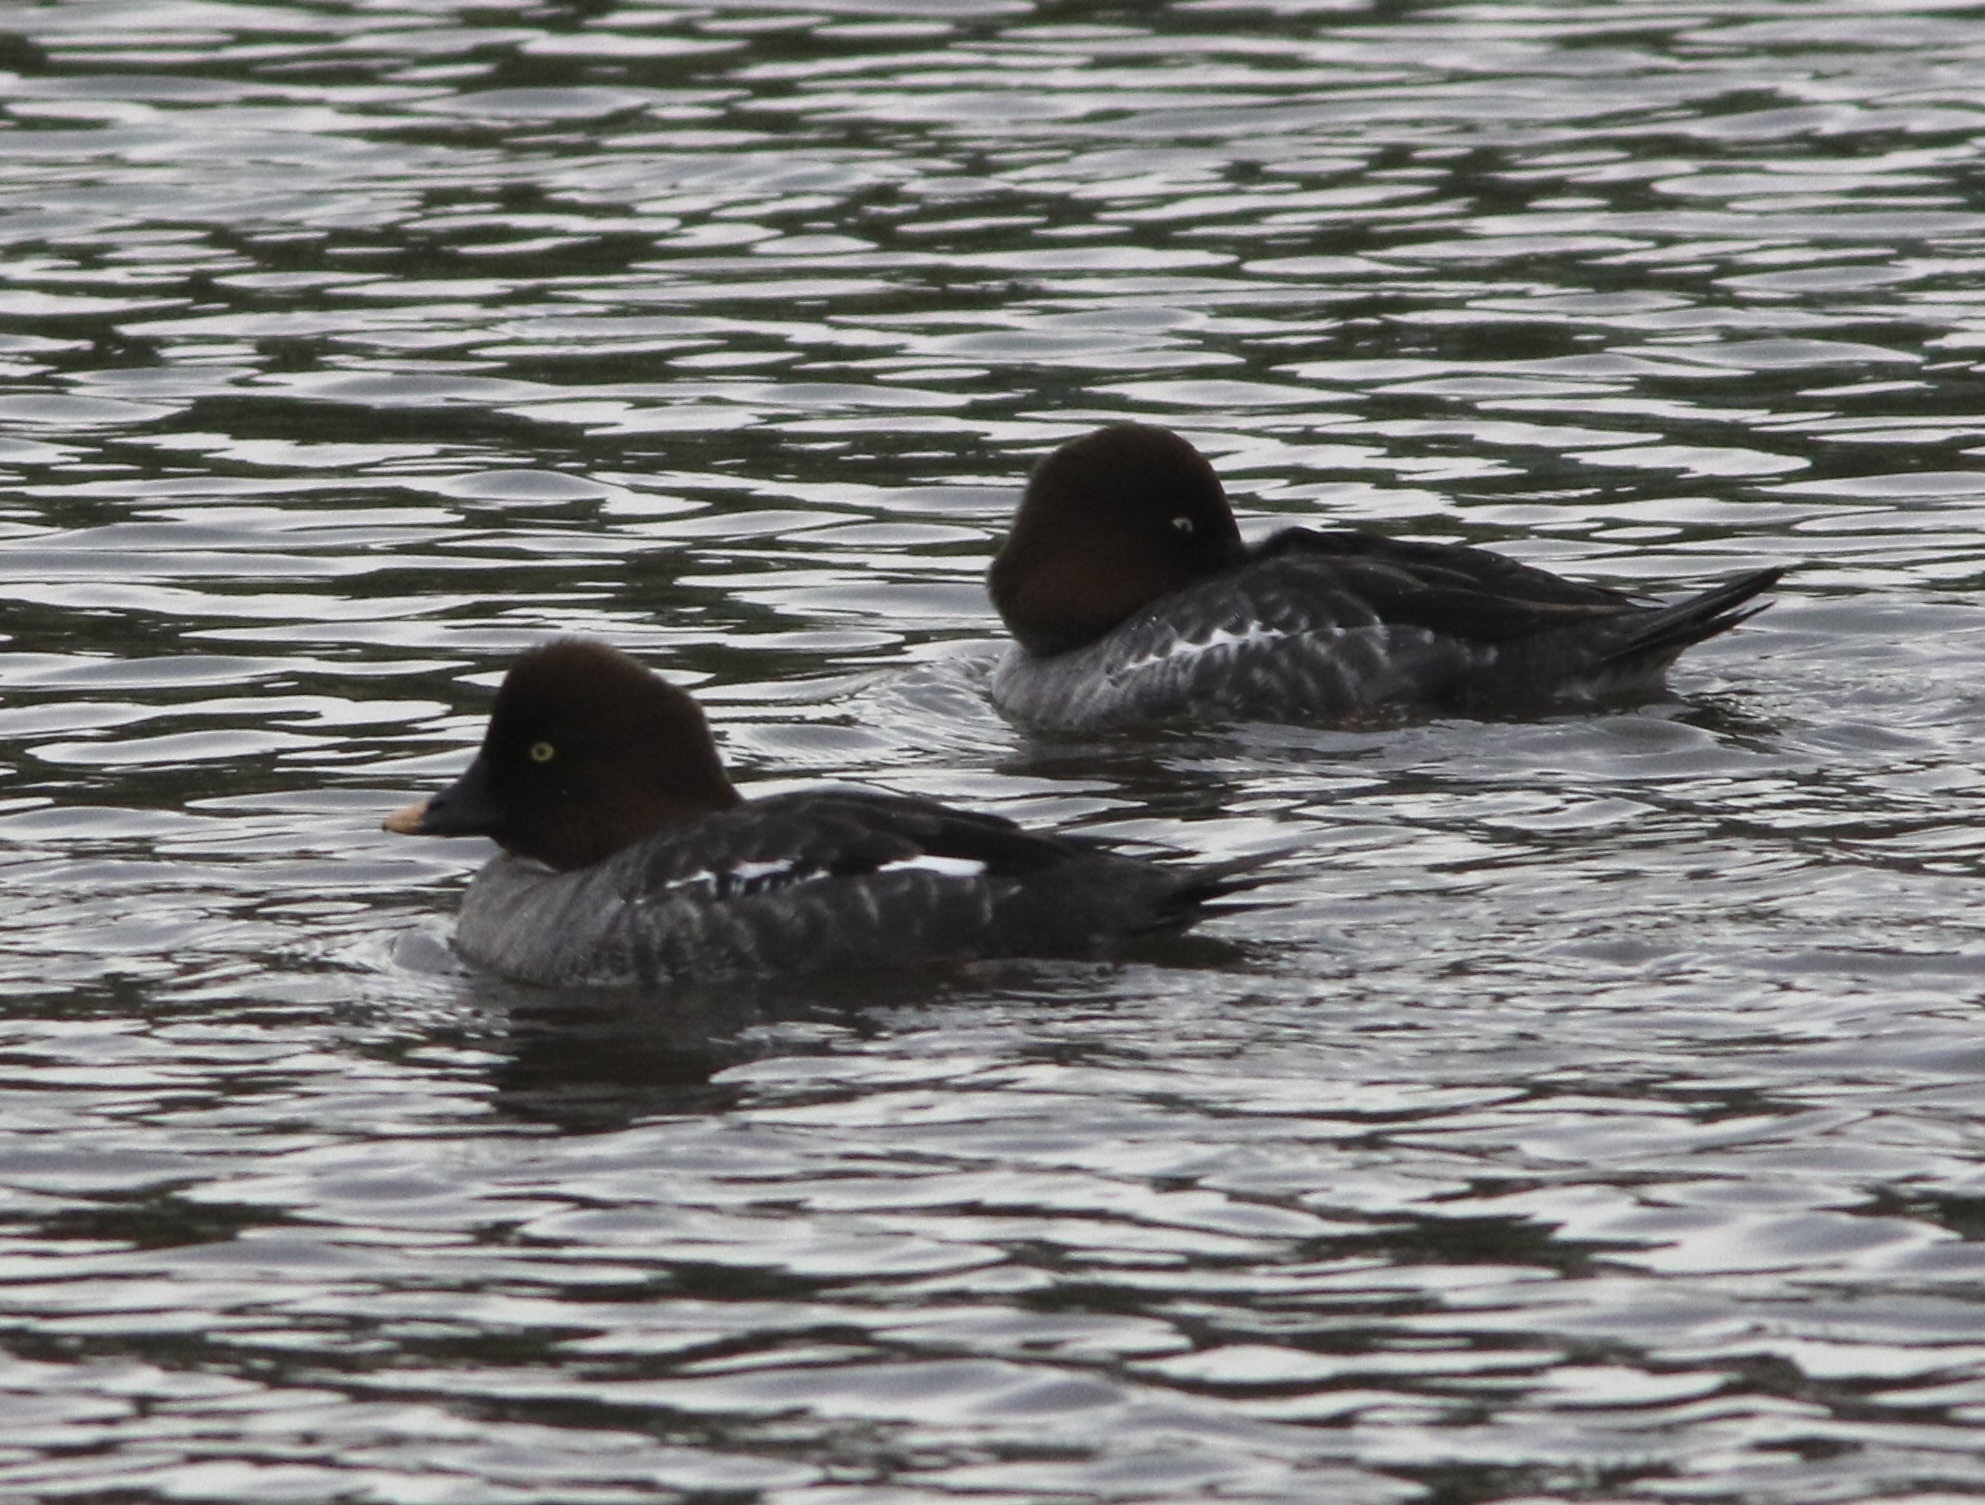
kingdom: Animalia
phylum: Chordata
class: Aves
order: Anseriformes
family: Anatidae
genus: Bucephala
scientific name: Bucephala clangula
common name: Common goldeneye
